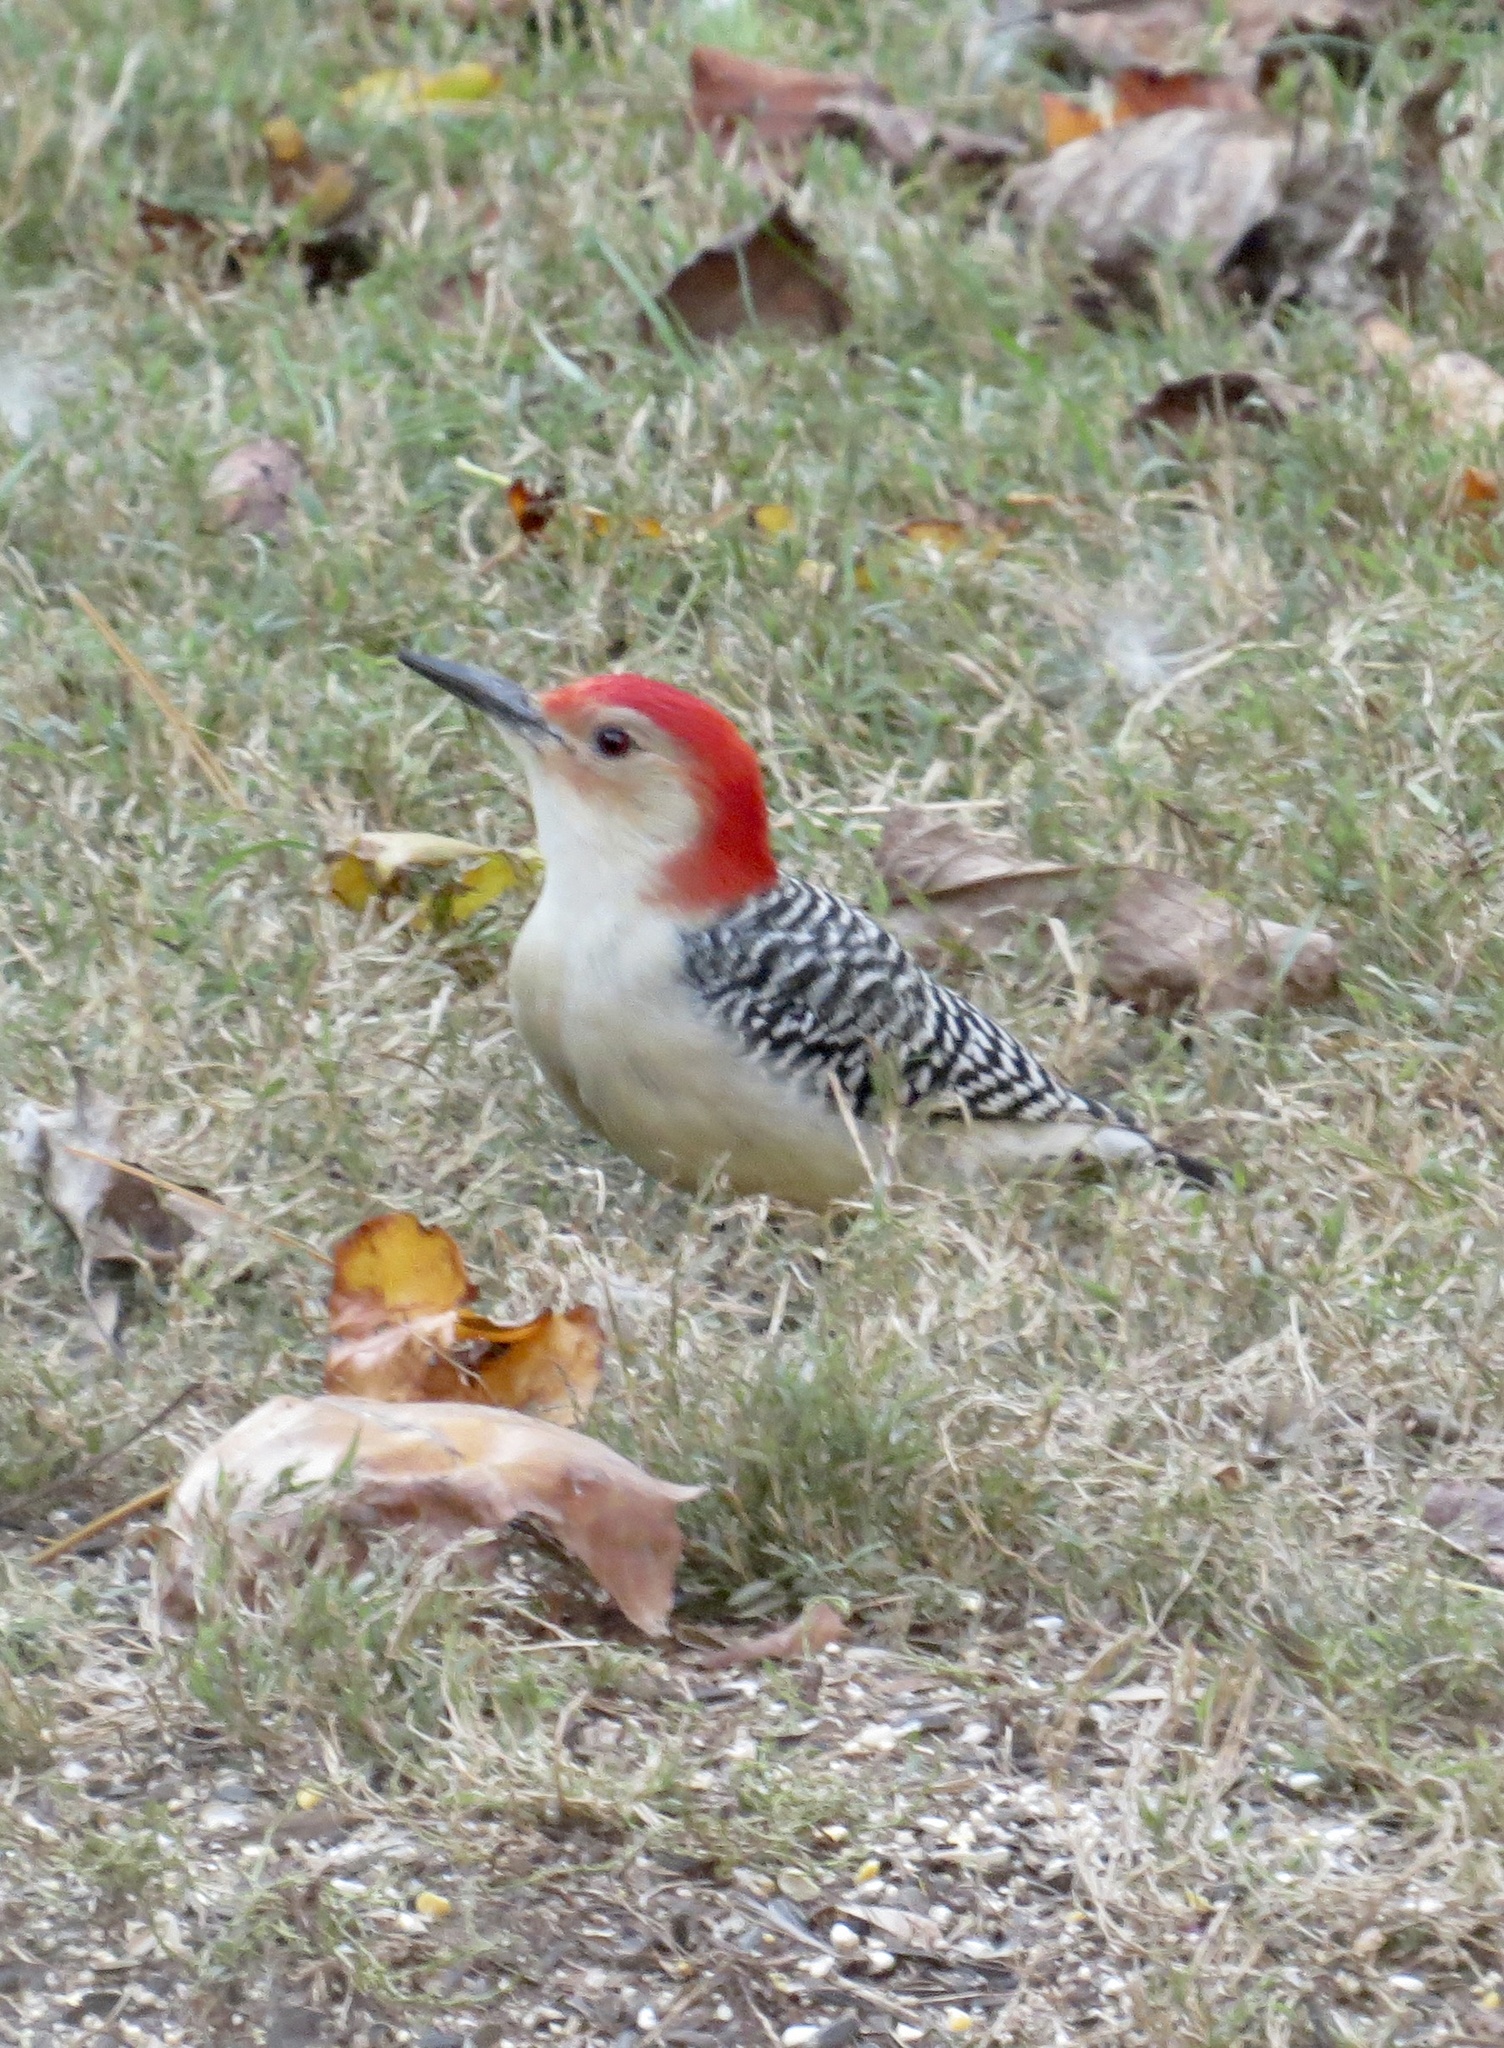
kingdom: Animalia
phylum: Chordata
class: Aves
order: Piciformes
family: Picidae
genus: Melanerpes
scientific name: Melanerpes carolinus
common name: Red-bellied woodpecker
